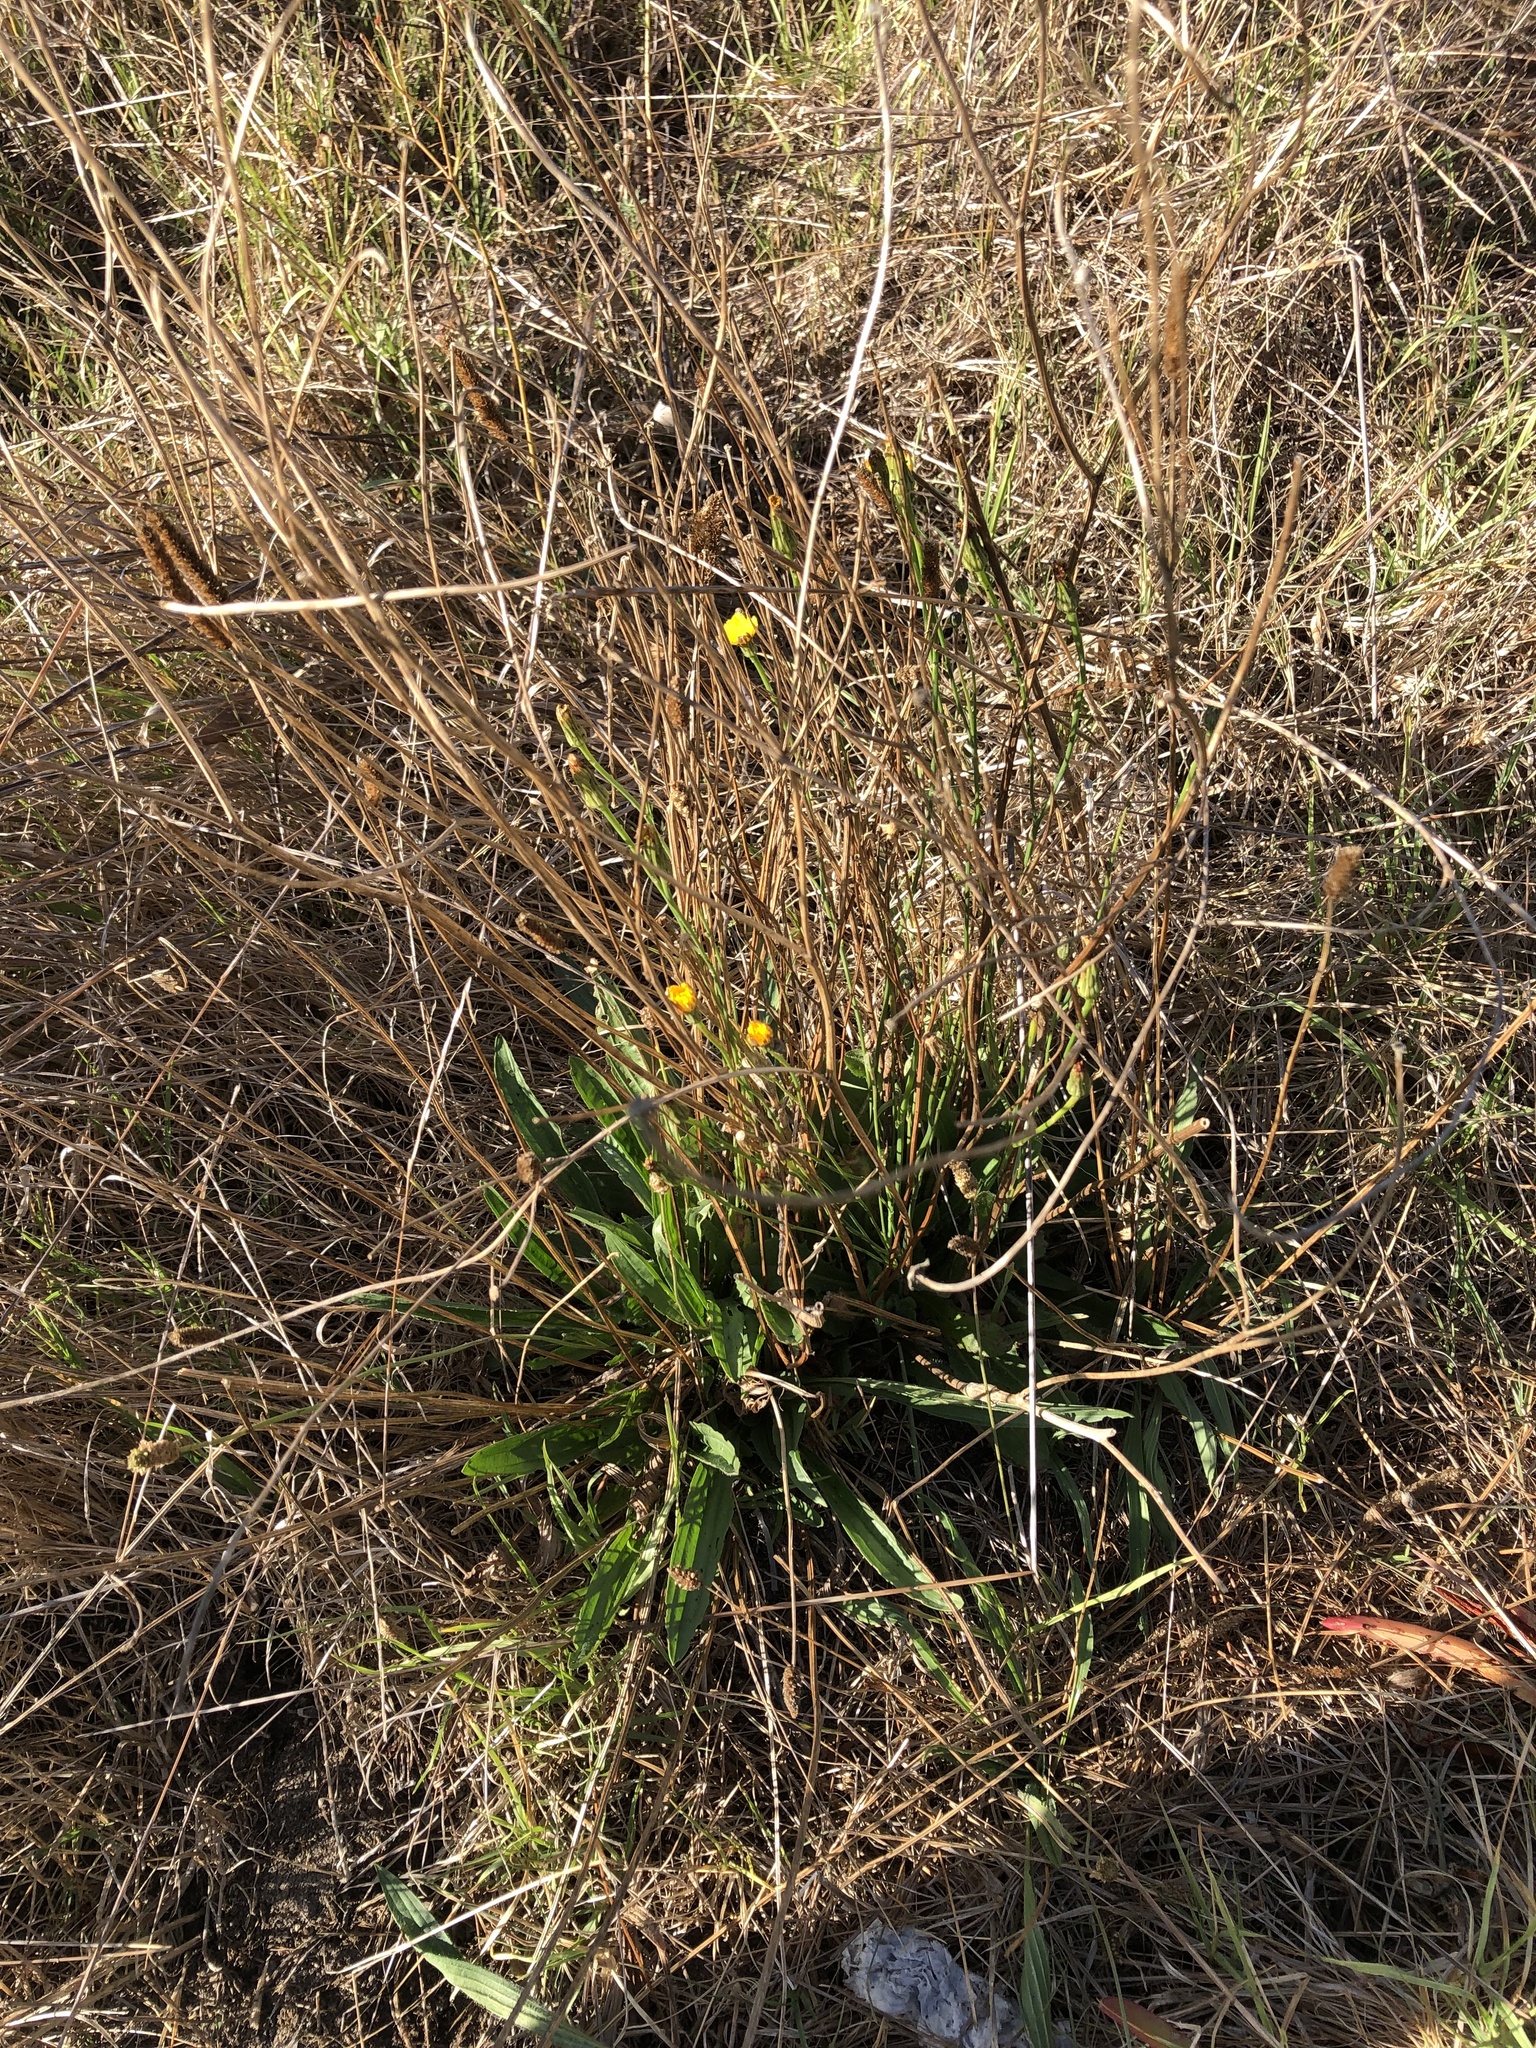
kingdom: Plantae
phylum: Tracheophyta
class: Magnoliopsida
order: Asterales
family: Asteraceae
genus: Hypochaeris
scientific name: Hypochaeris radicata
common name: Flatweed
